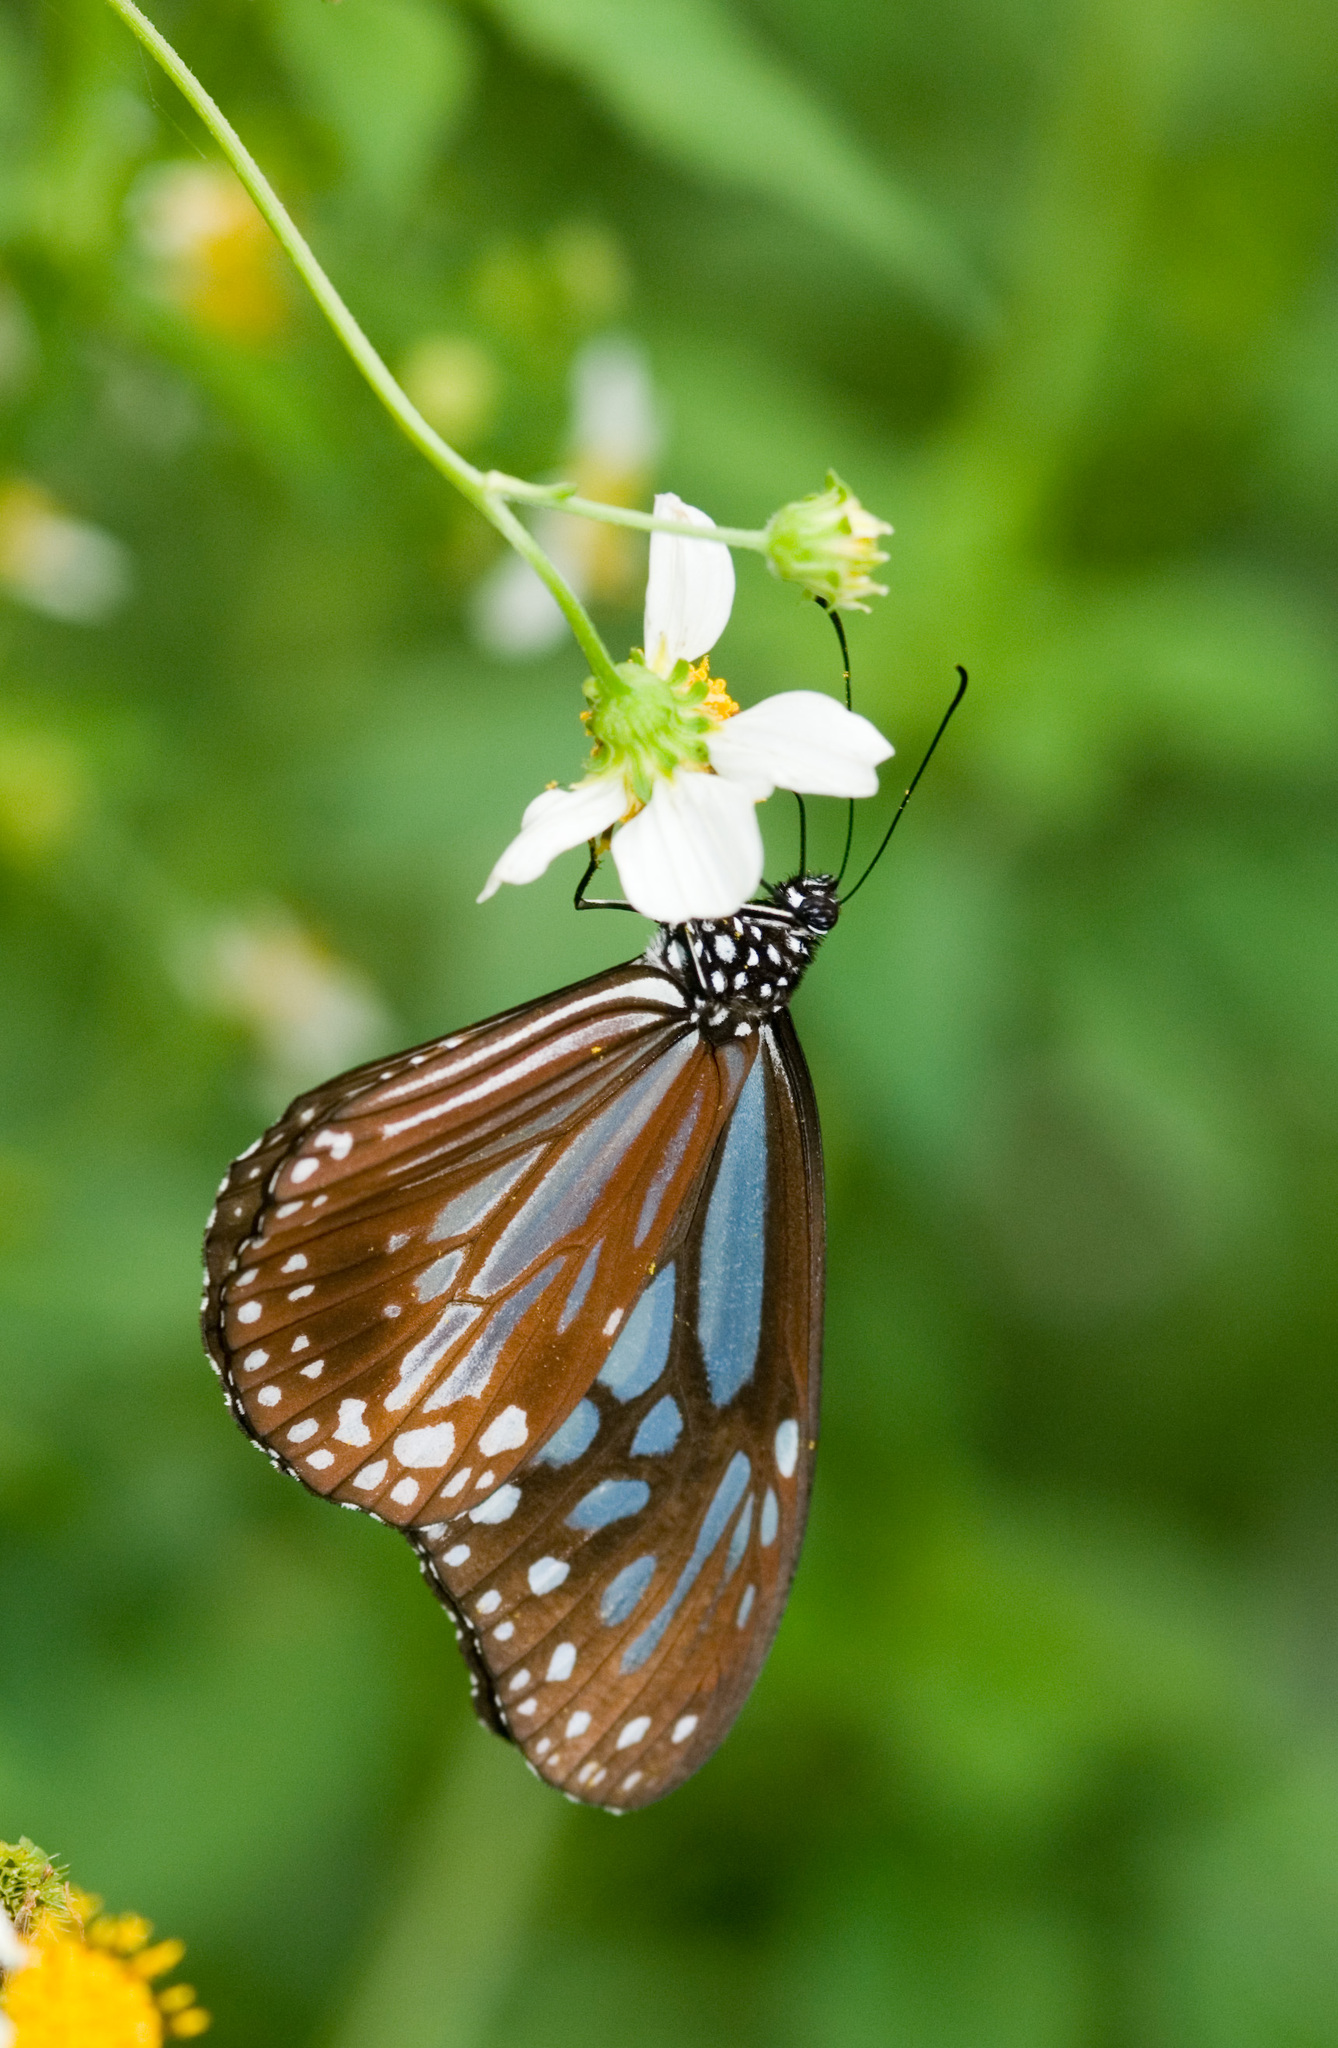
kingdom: Animalia
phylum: Arthropoda
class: Insecta
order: Lepidoptera
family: Nymphalidae
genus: Parantica
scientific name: Parantica melaneus
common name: Chocolate tiger
